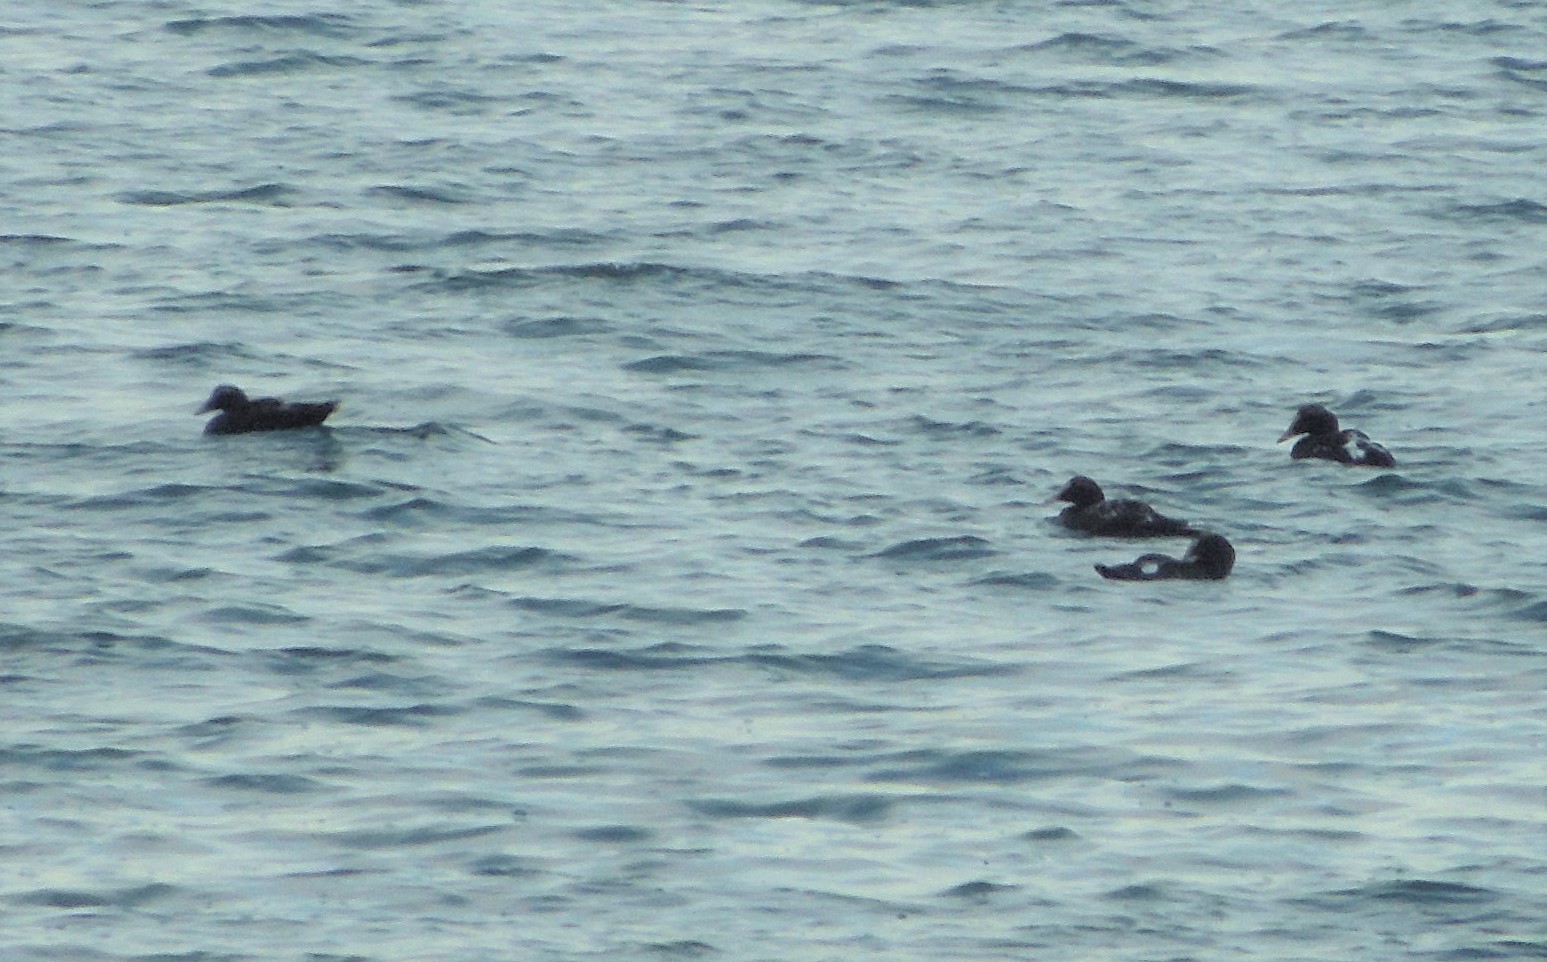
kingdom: Animalia
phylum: Chordata
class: Aves
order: Anseriformes
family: Anatidae
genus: Somateria
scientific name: Somateria mollissima
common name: Common eider
